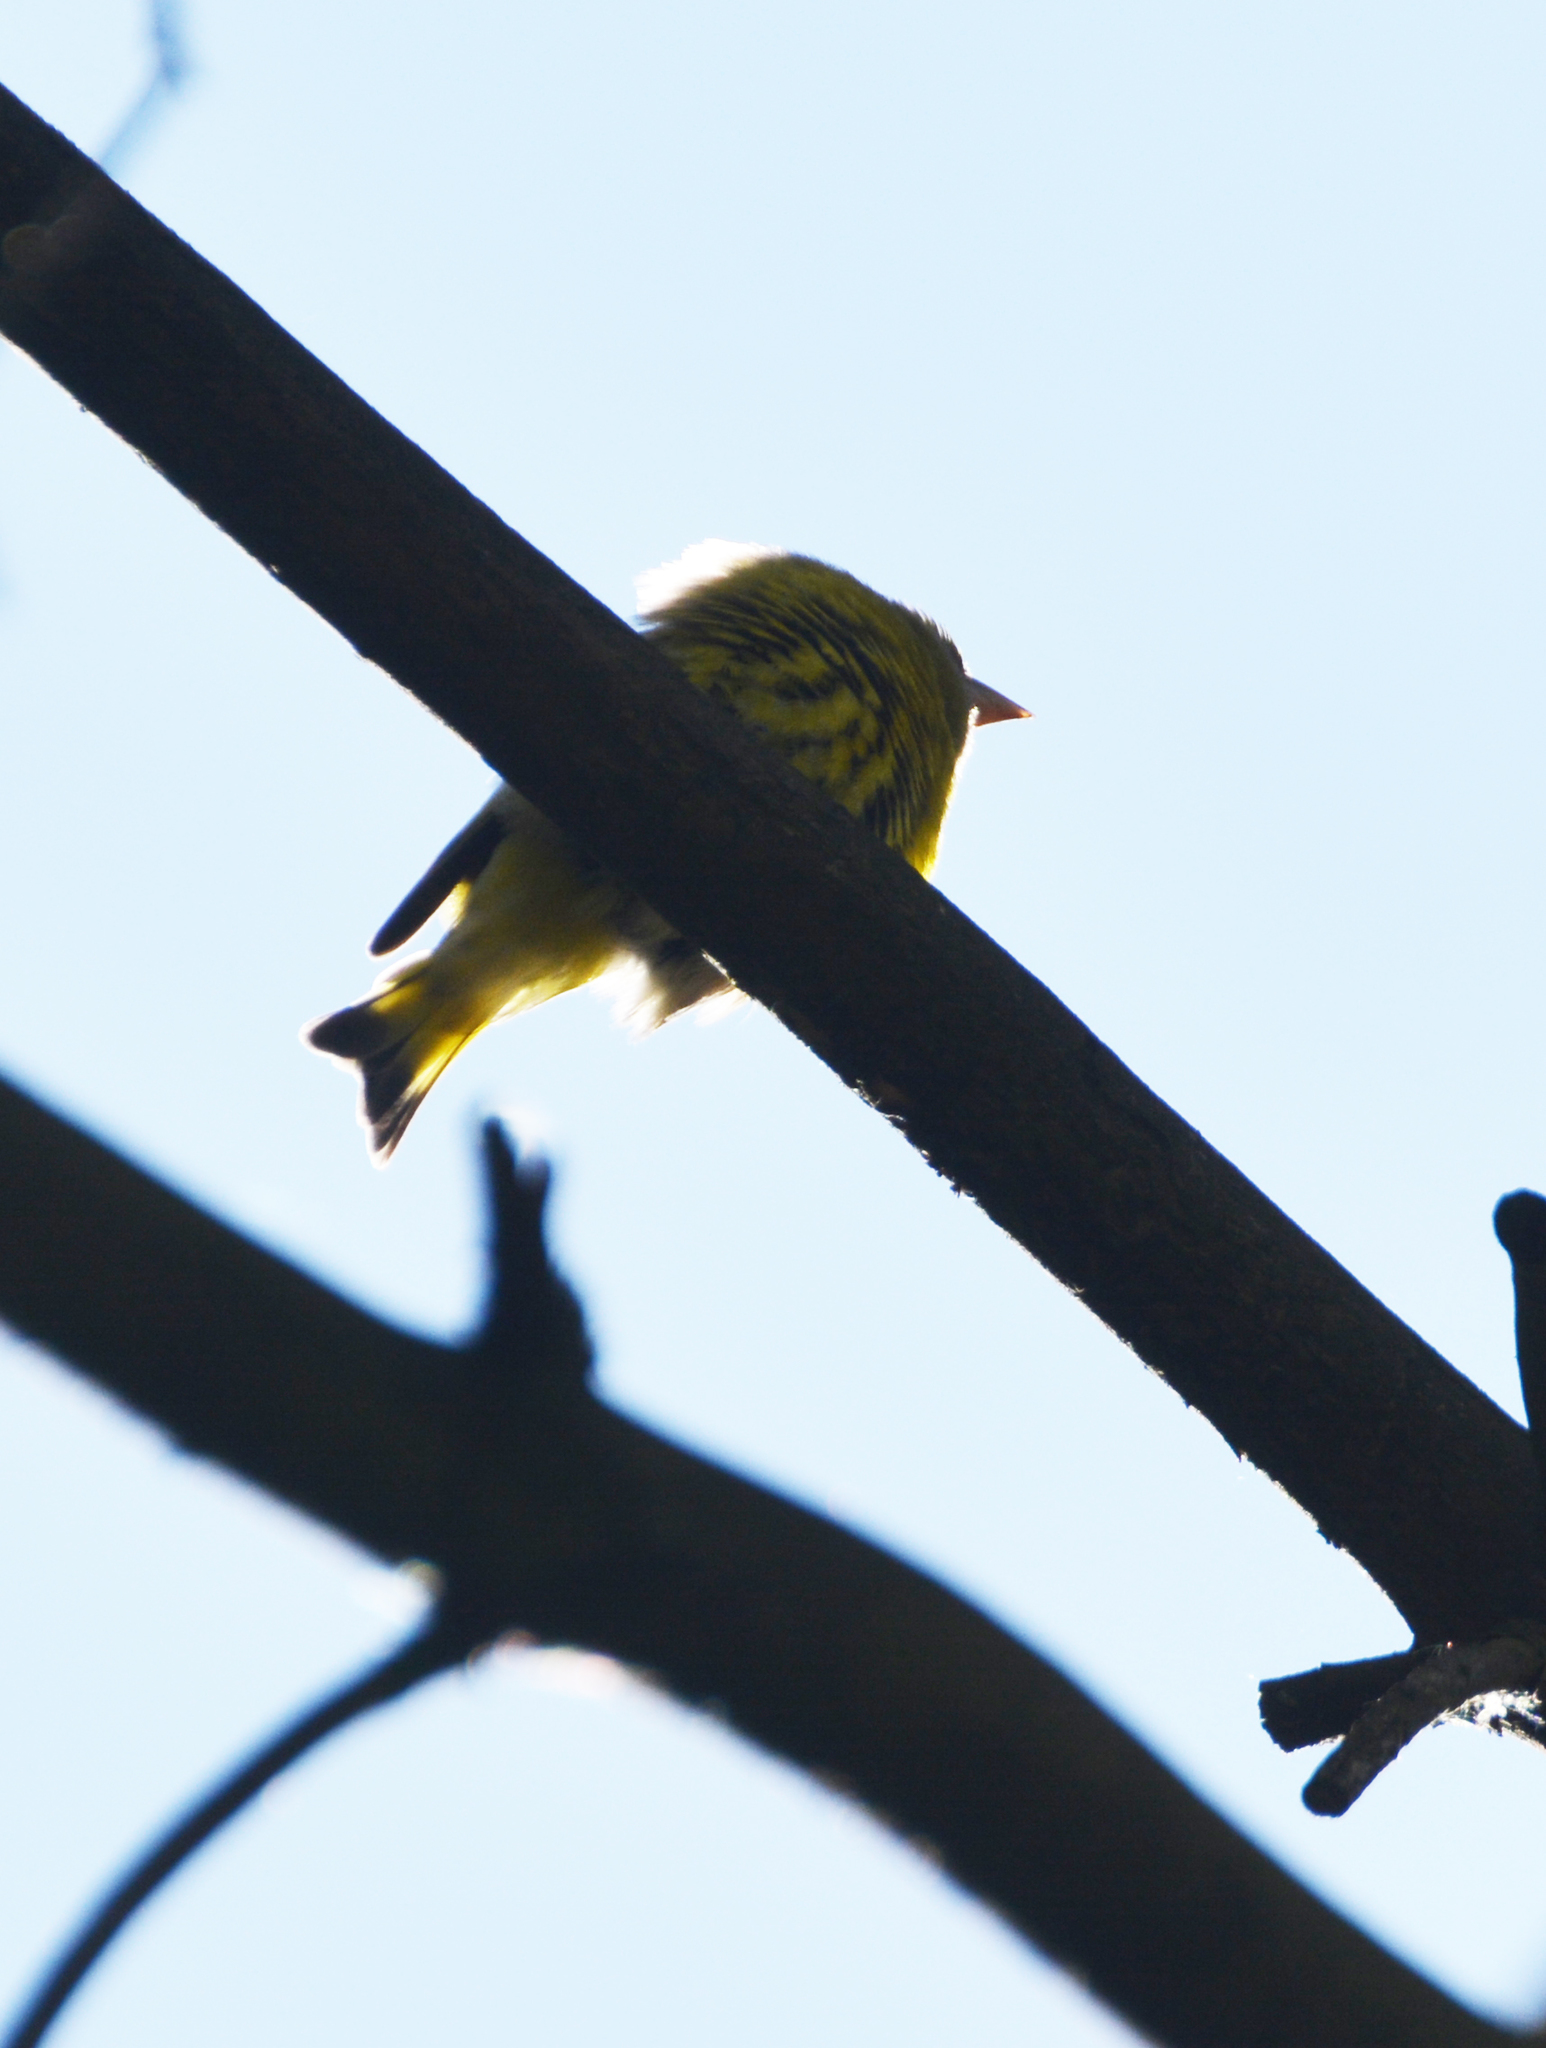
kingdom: Animalia
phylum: Chordata
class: Aves
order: Passeriformes
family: Fringillidae
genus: Spinus
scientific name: Spinus spinus
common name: Eurasian siskin
